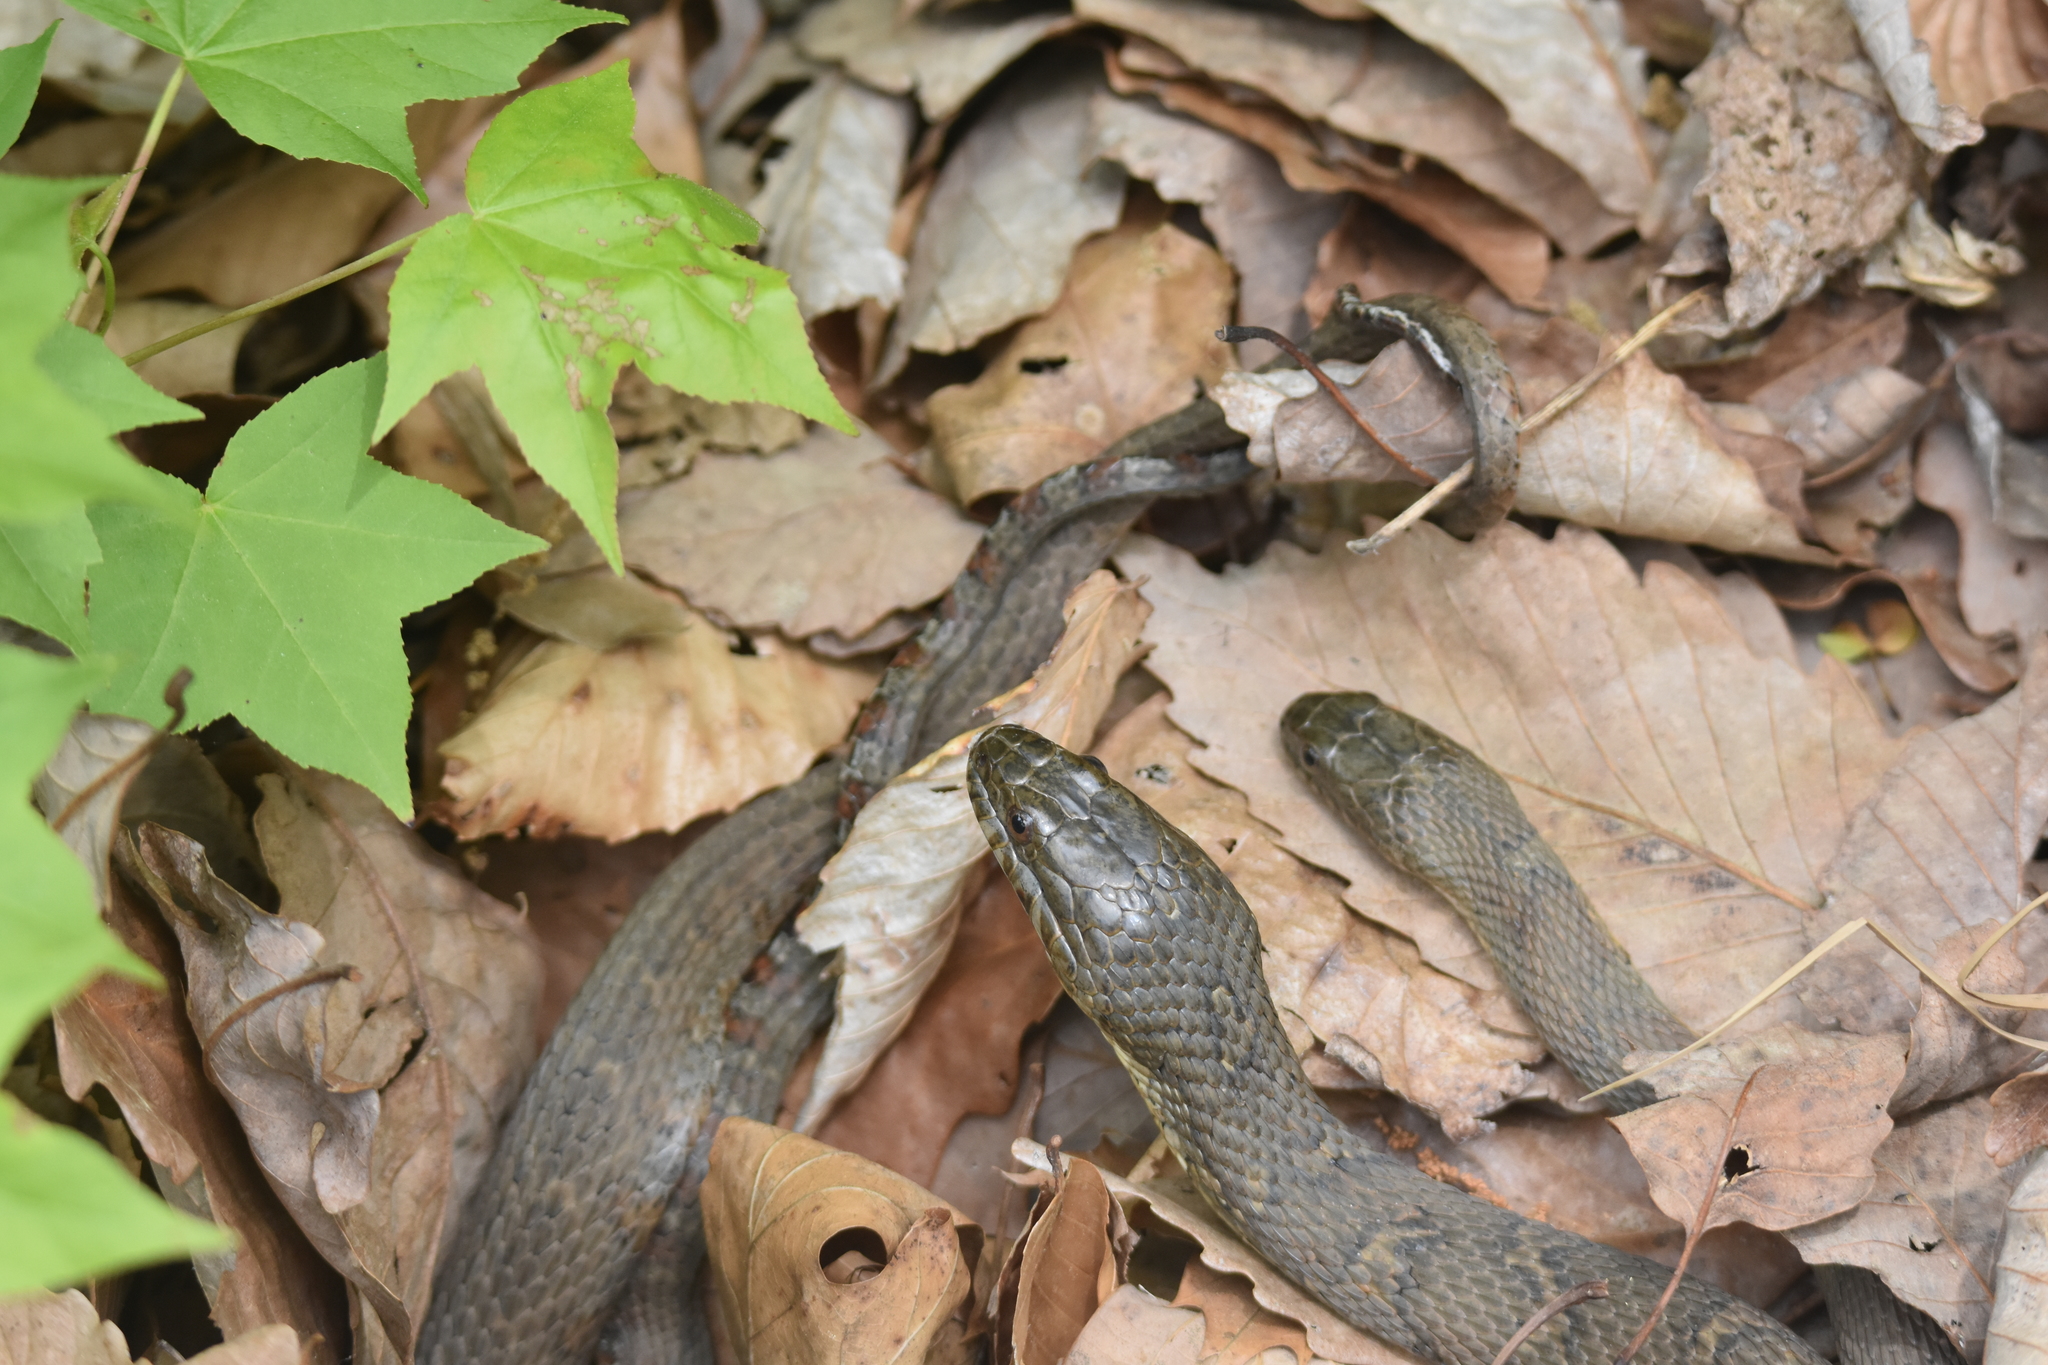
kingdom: Animalia
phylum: Chordata
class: Squamata
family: Colubridae
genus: Nerodia
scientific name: Nerodia sipedon
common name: Northern water snake
